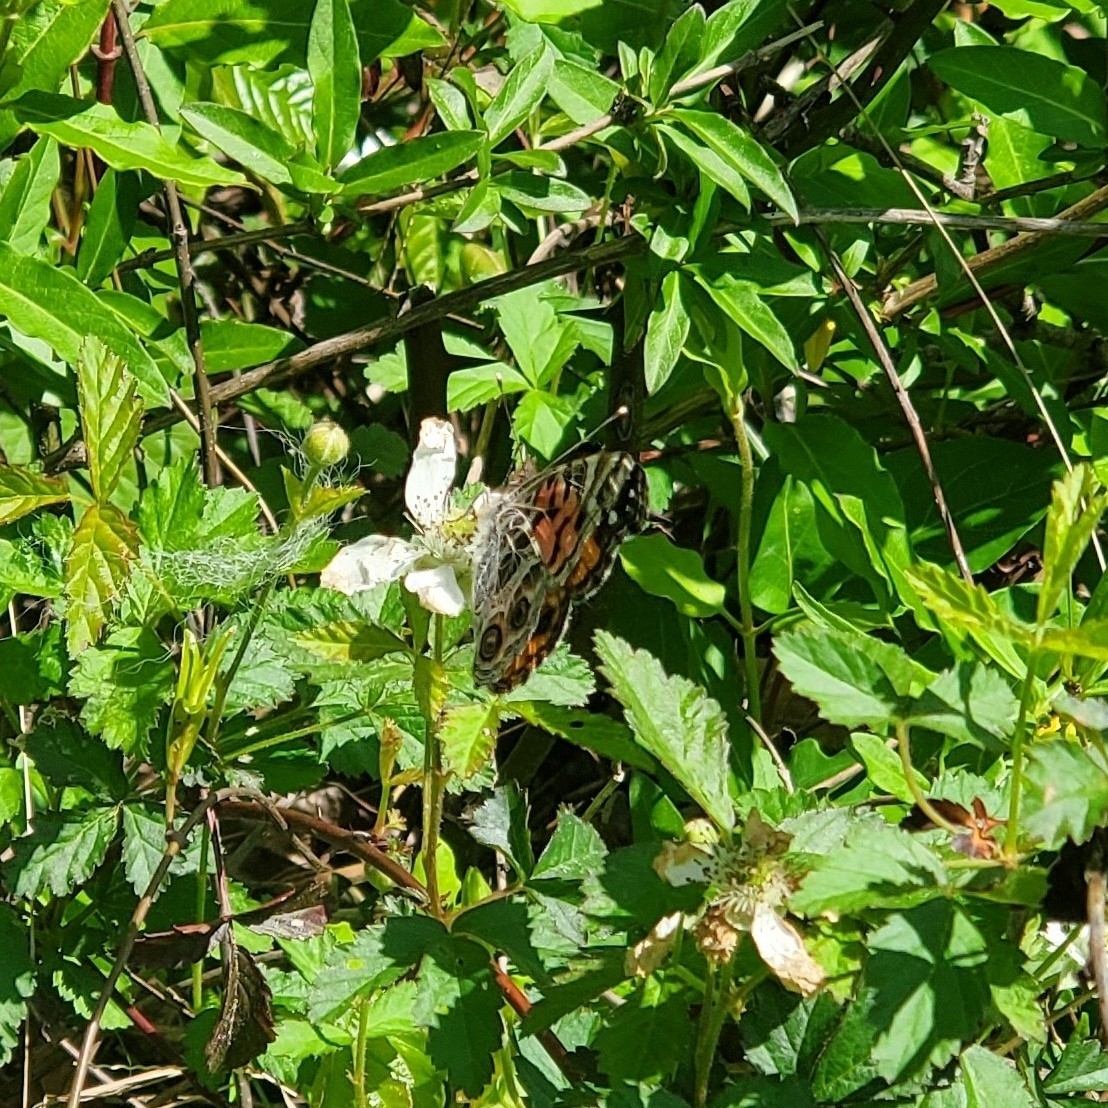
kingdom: Animalia
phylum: Arthropoda
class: Insecta
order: Lepidoptera
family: Nymphalidae
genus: Vanessa
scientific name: Vanessa virginiensis
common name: American lady
